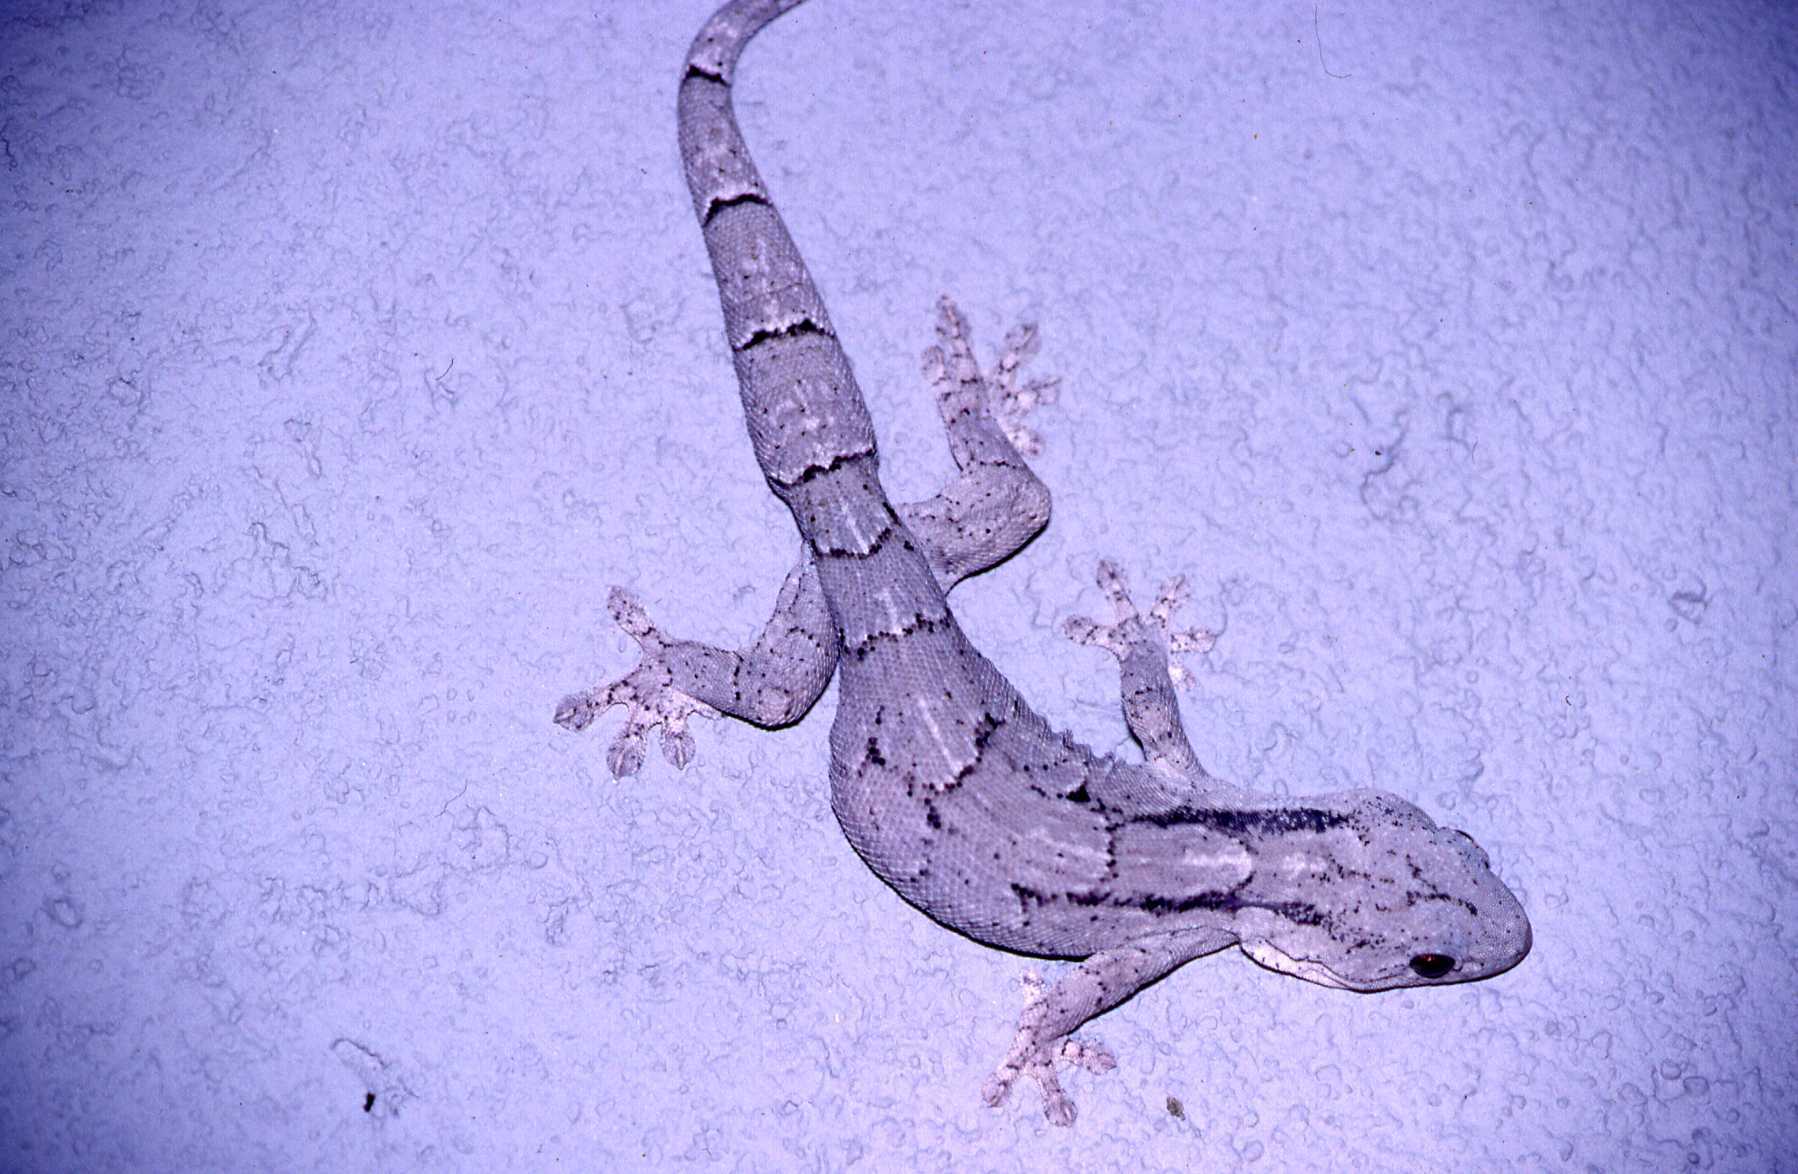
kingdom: Animalia
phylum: Chordata
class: Squamata
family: Gekkonidae
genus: Homopholis
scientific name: Homopholis arnoldi
